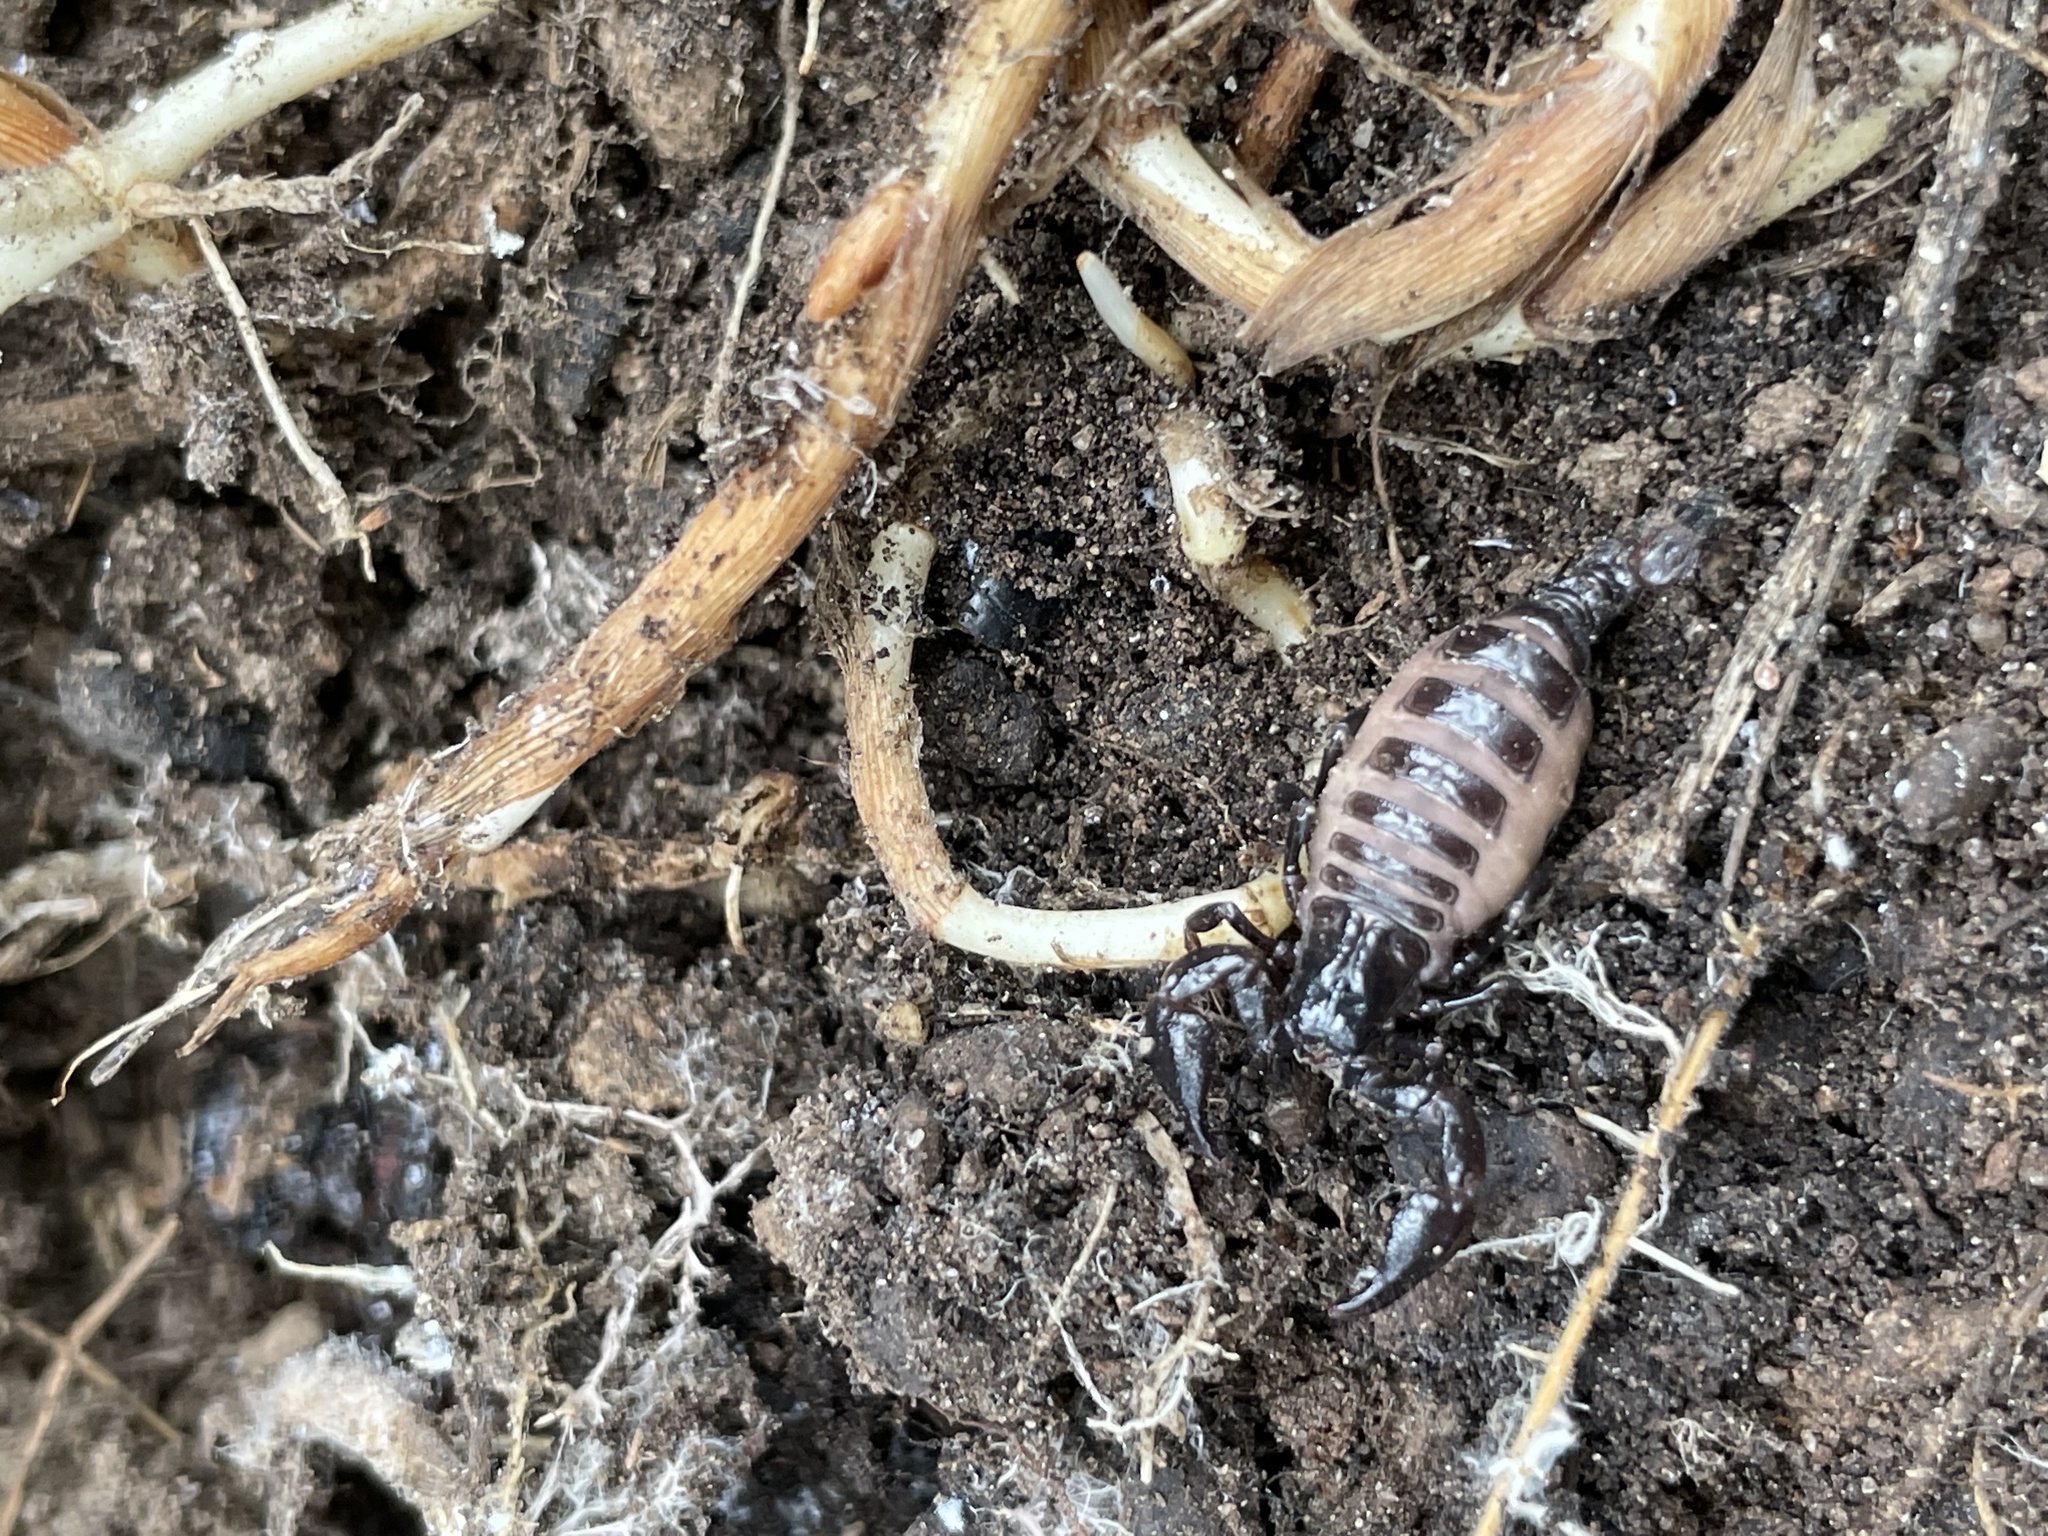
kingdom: Animalia
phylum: Arthropoda
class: Arachnida
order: Scorpiones
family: Chactidae
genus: Teuthraustes
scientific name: Teuthraustes atramentarius
